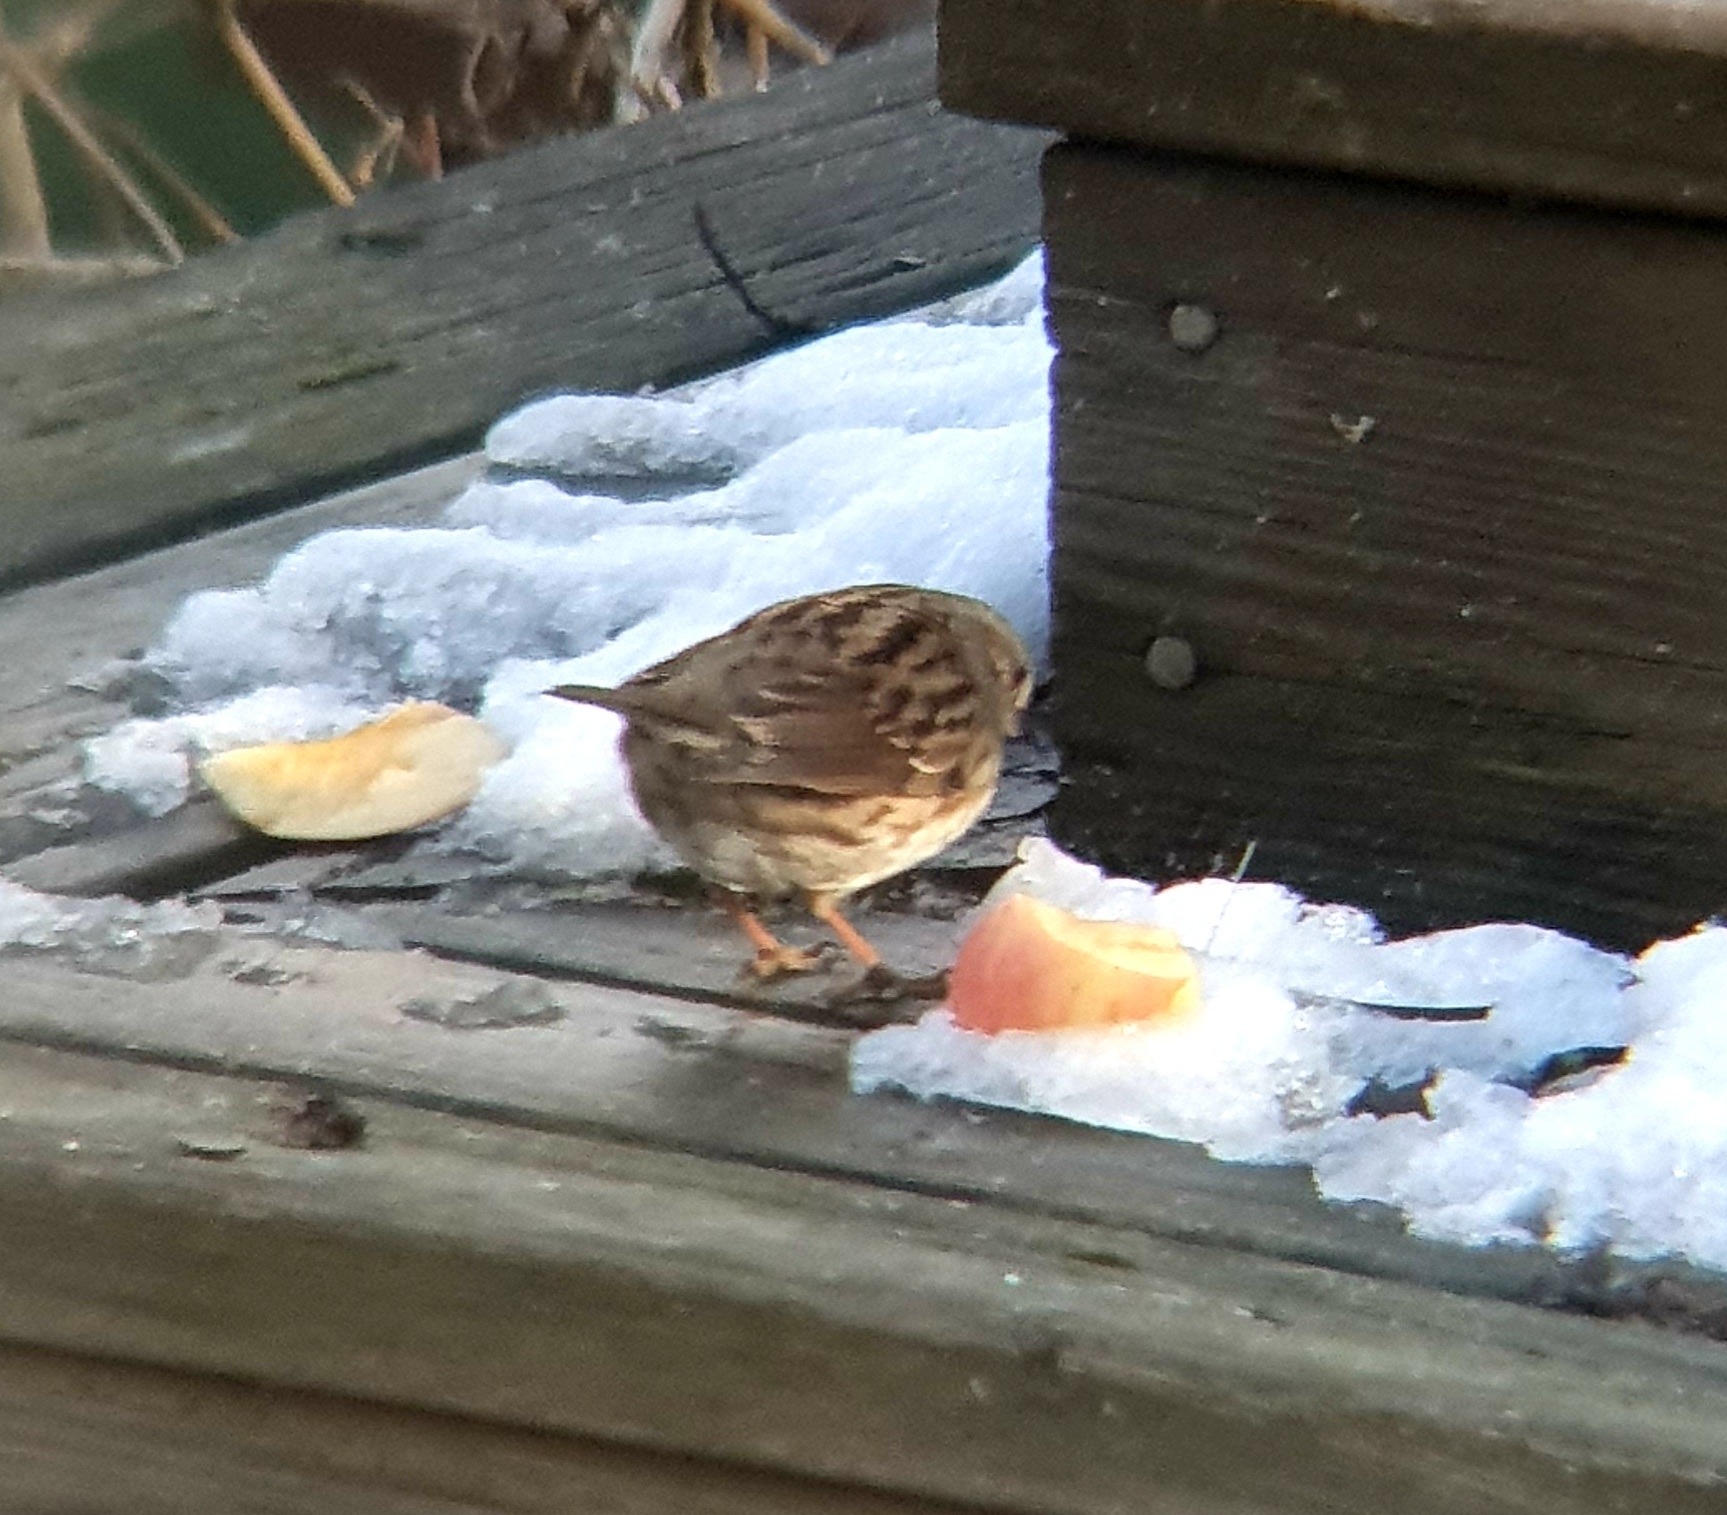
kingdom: Animalia
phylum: Chordata
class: Aves
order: Passeriformes
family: Prunellidae
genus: Prunella
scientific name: Prunella modularis
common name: Dunnock
